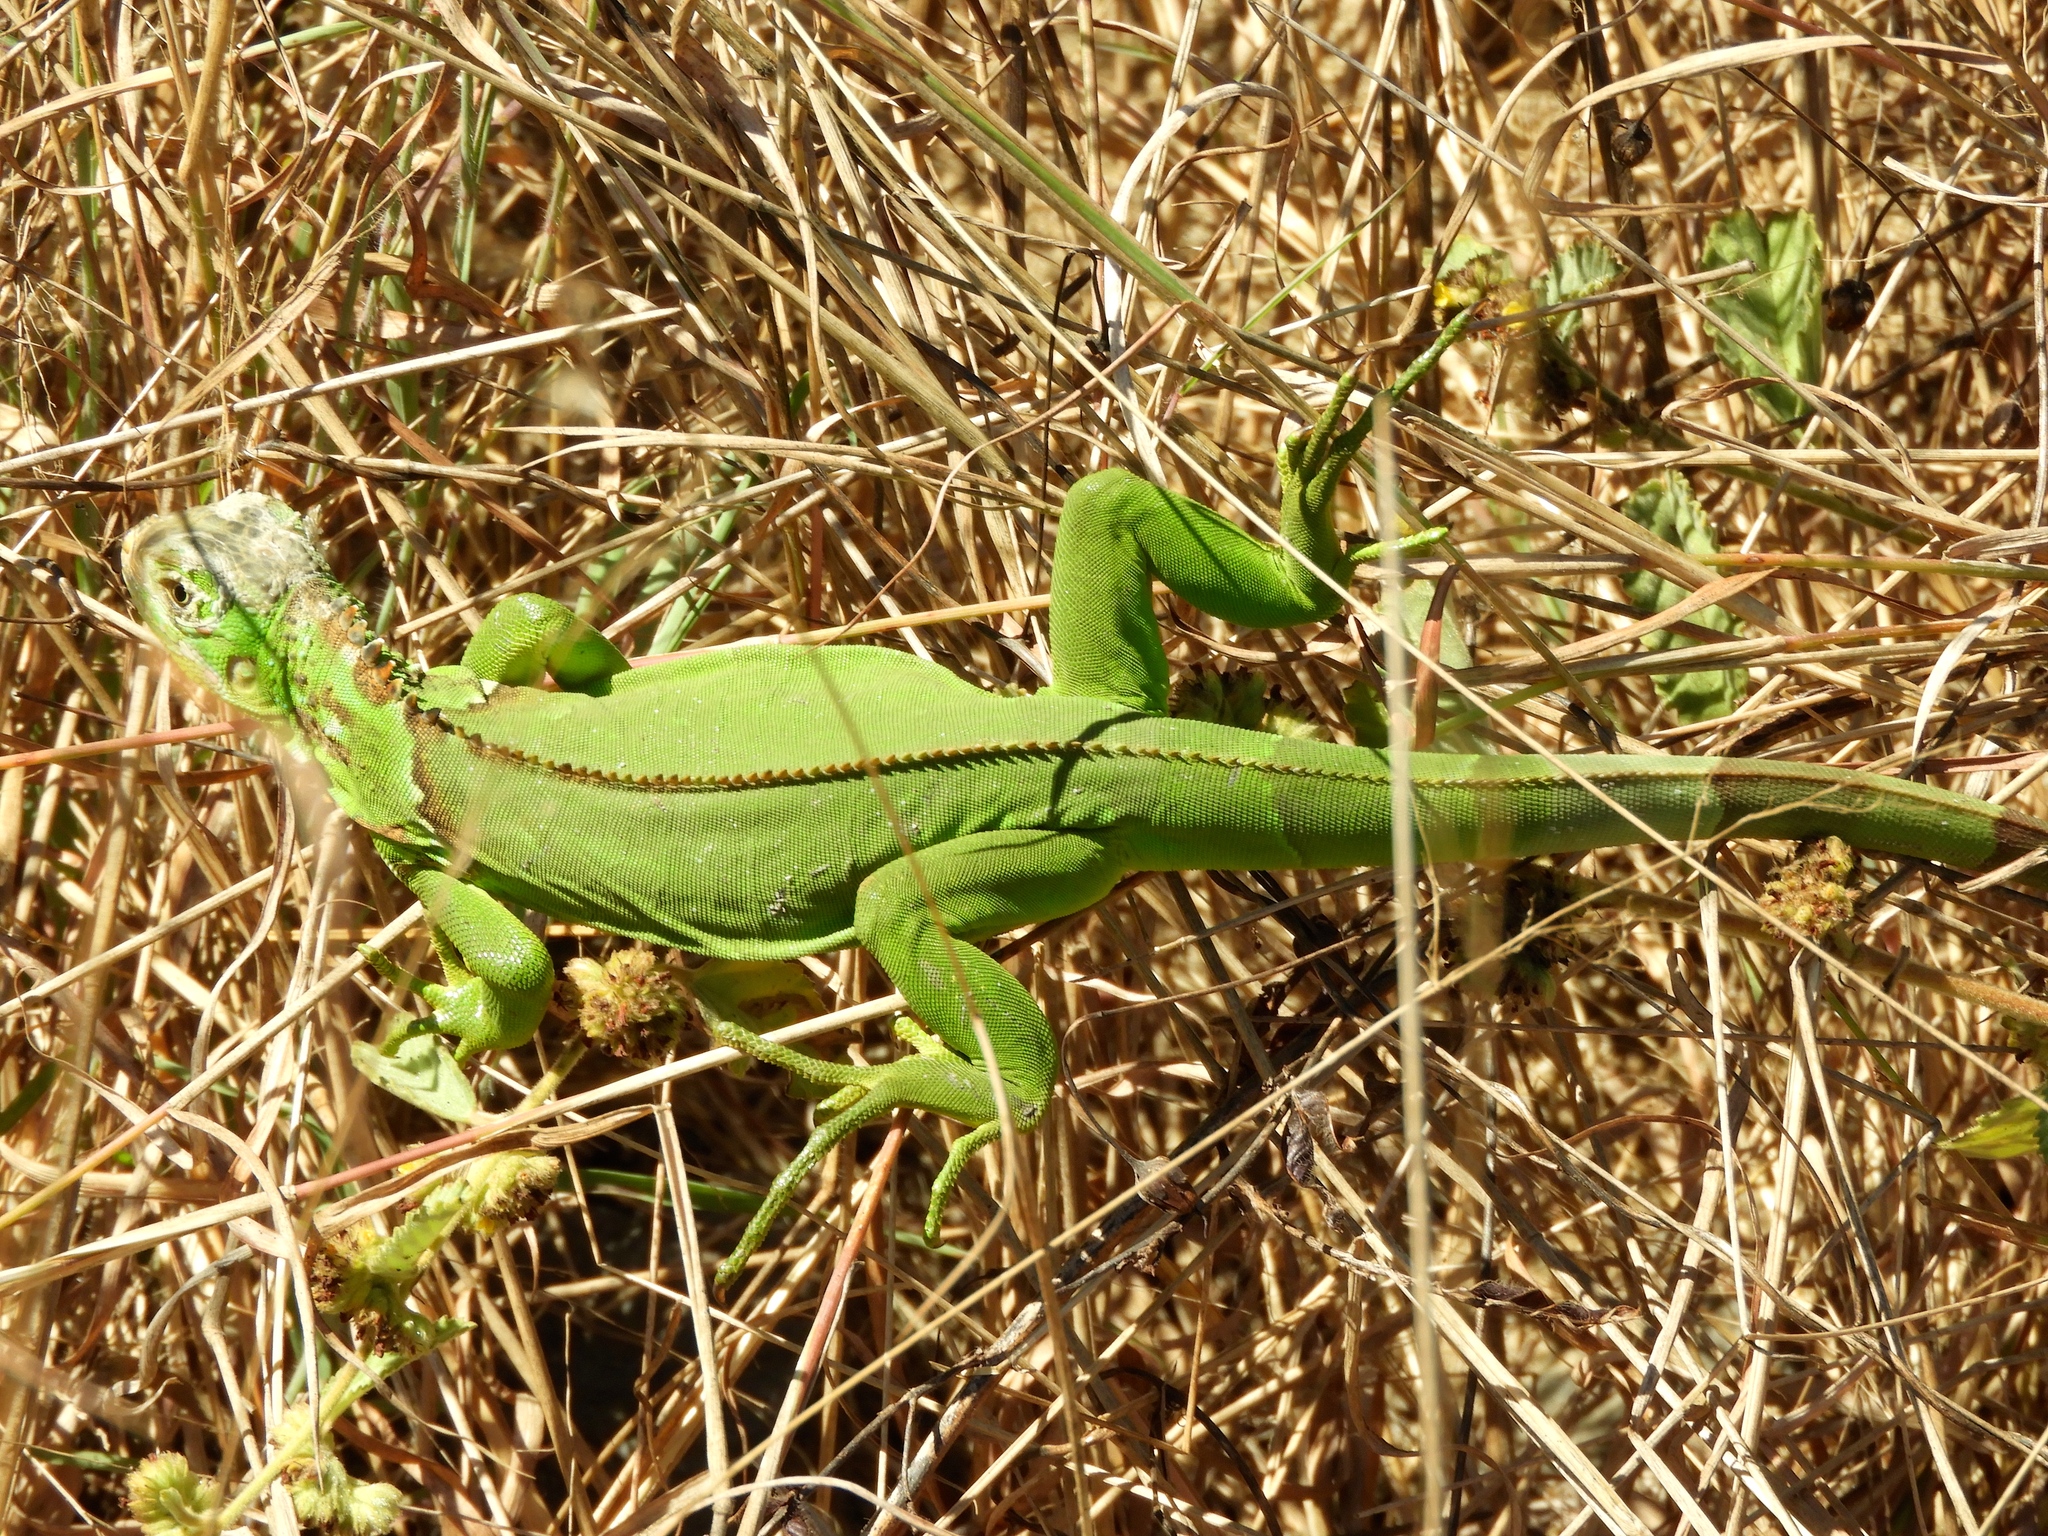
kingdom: Animalia
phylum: Chordata
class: Squamata
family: Iguanidae
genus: Iguana
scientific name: Iguana iguana
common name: Green iguana
